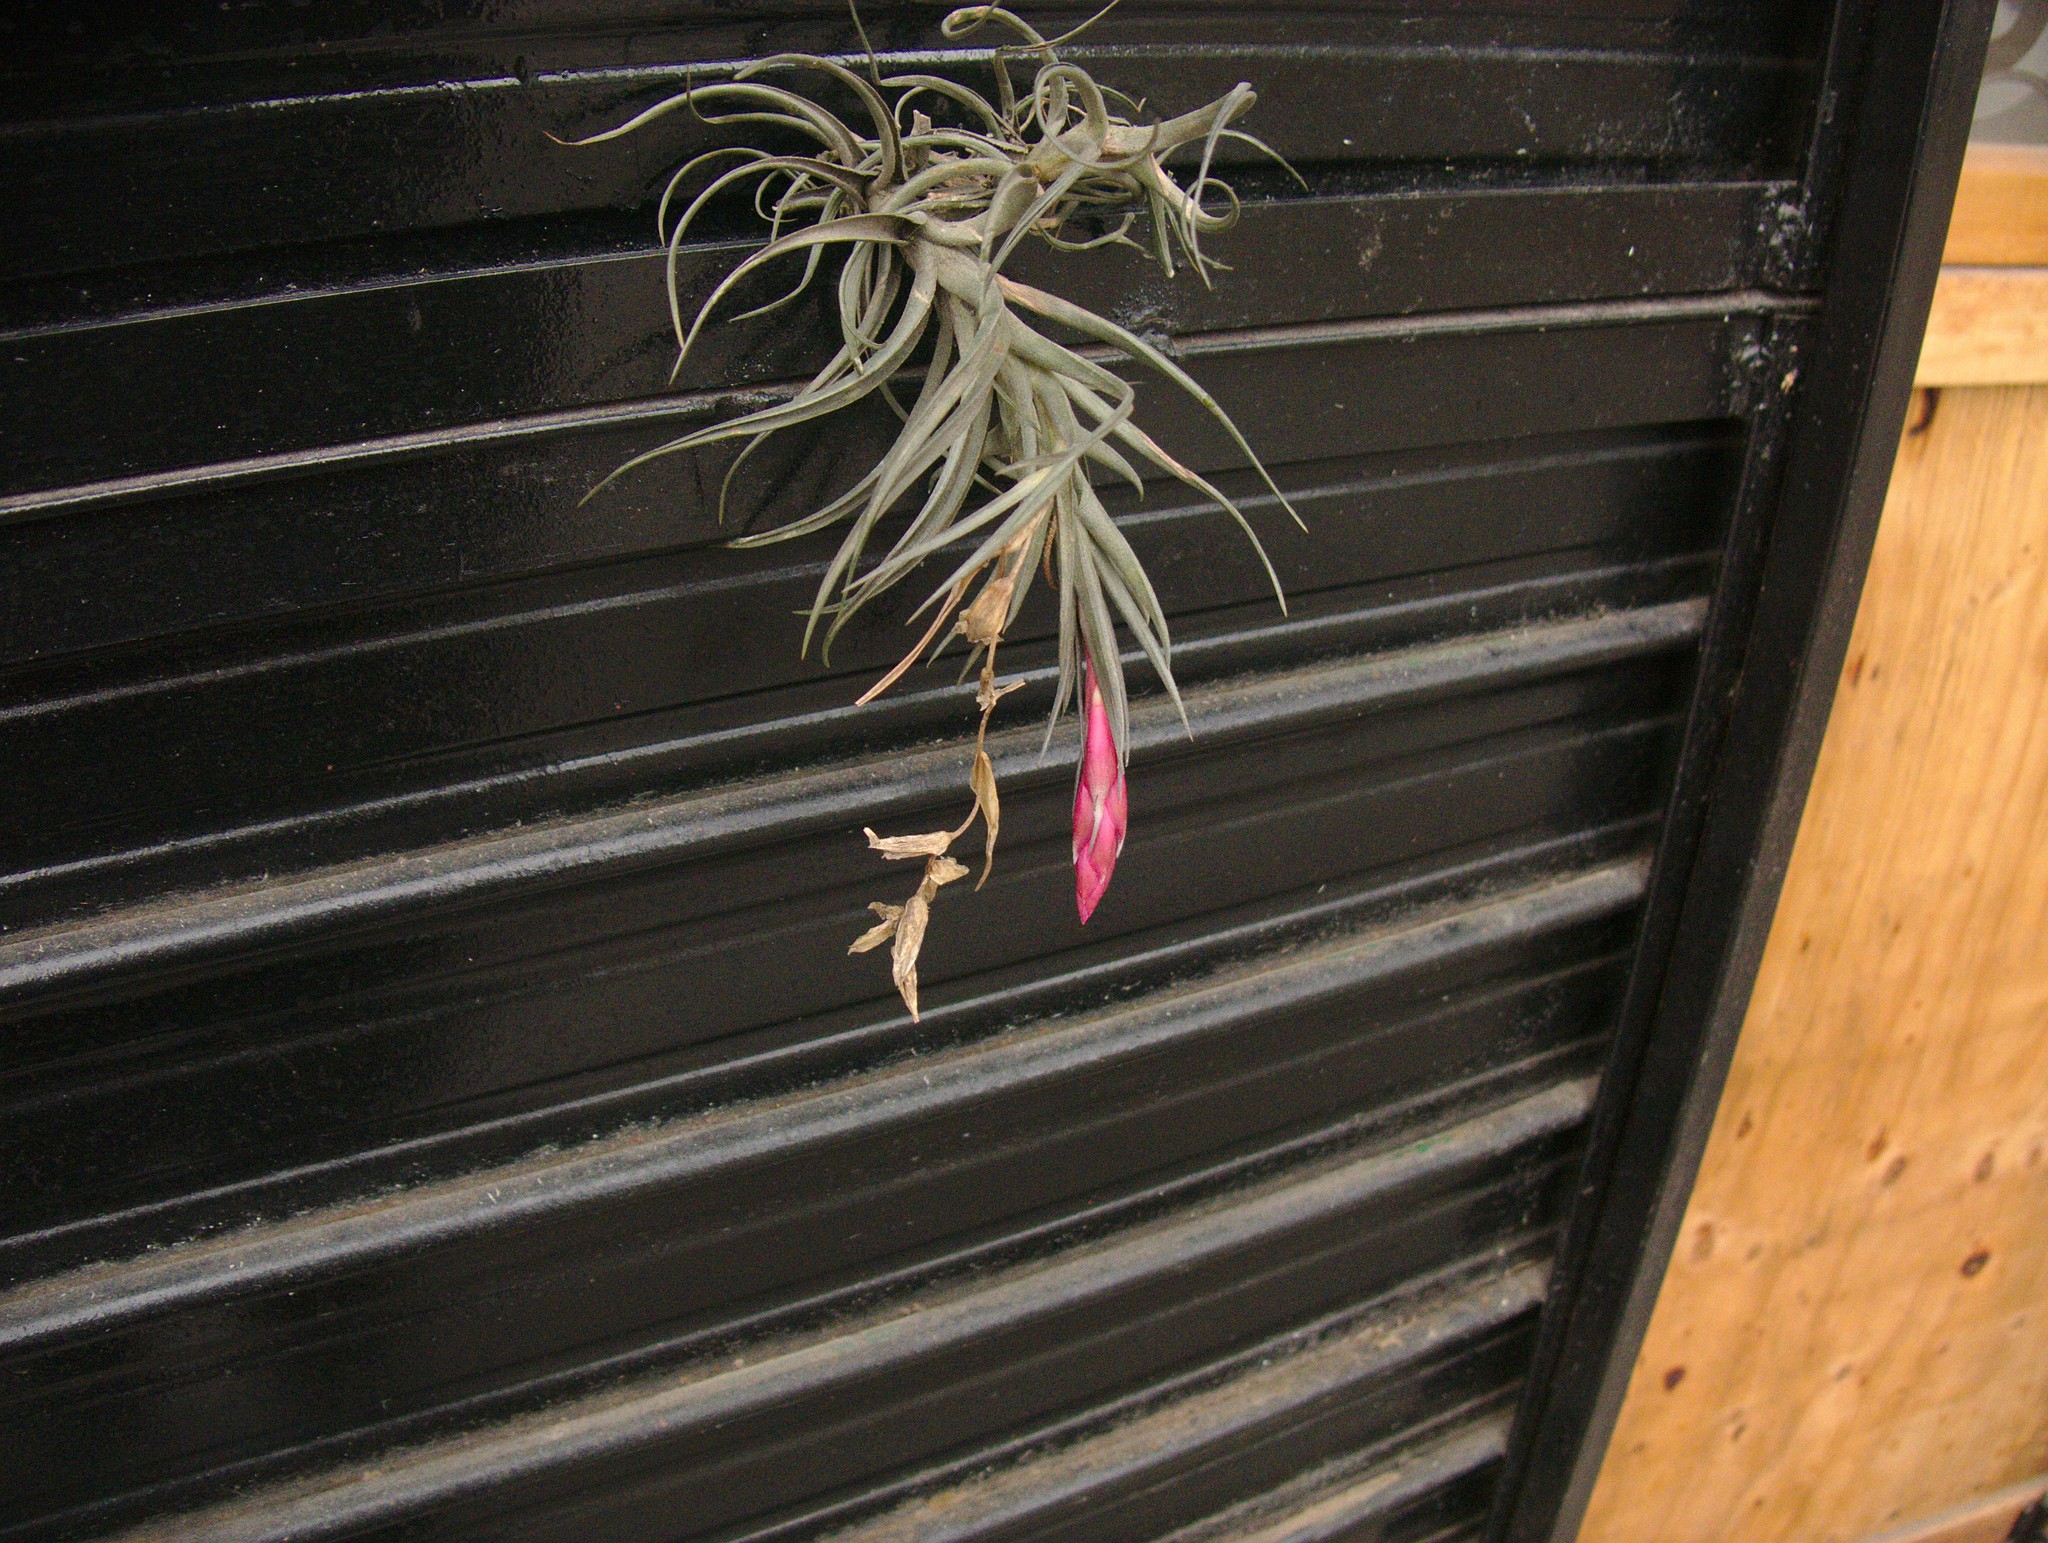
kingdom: Plantae
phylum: Tracheophyta
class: Liliopsida
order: Poales
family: Bromeliaceae
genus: Tillandsia
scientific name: Tillandsia aeranthos
